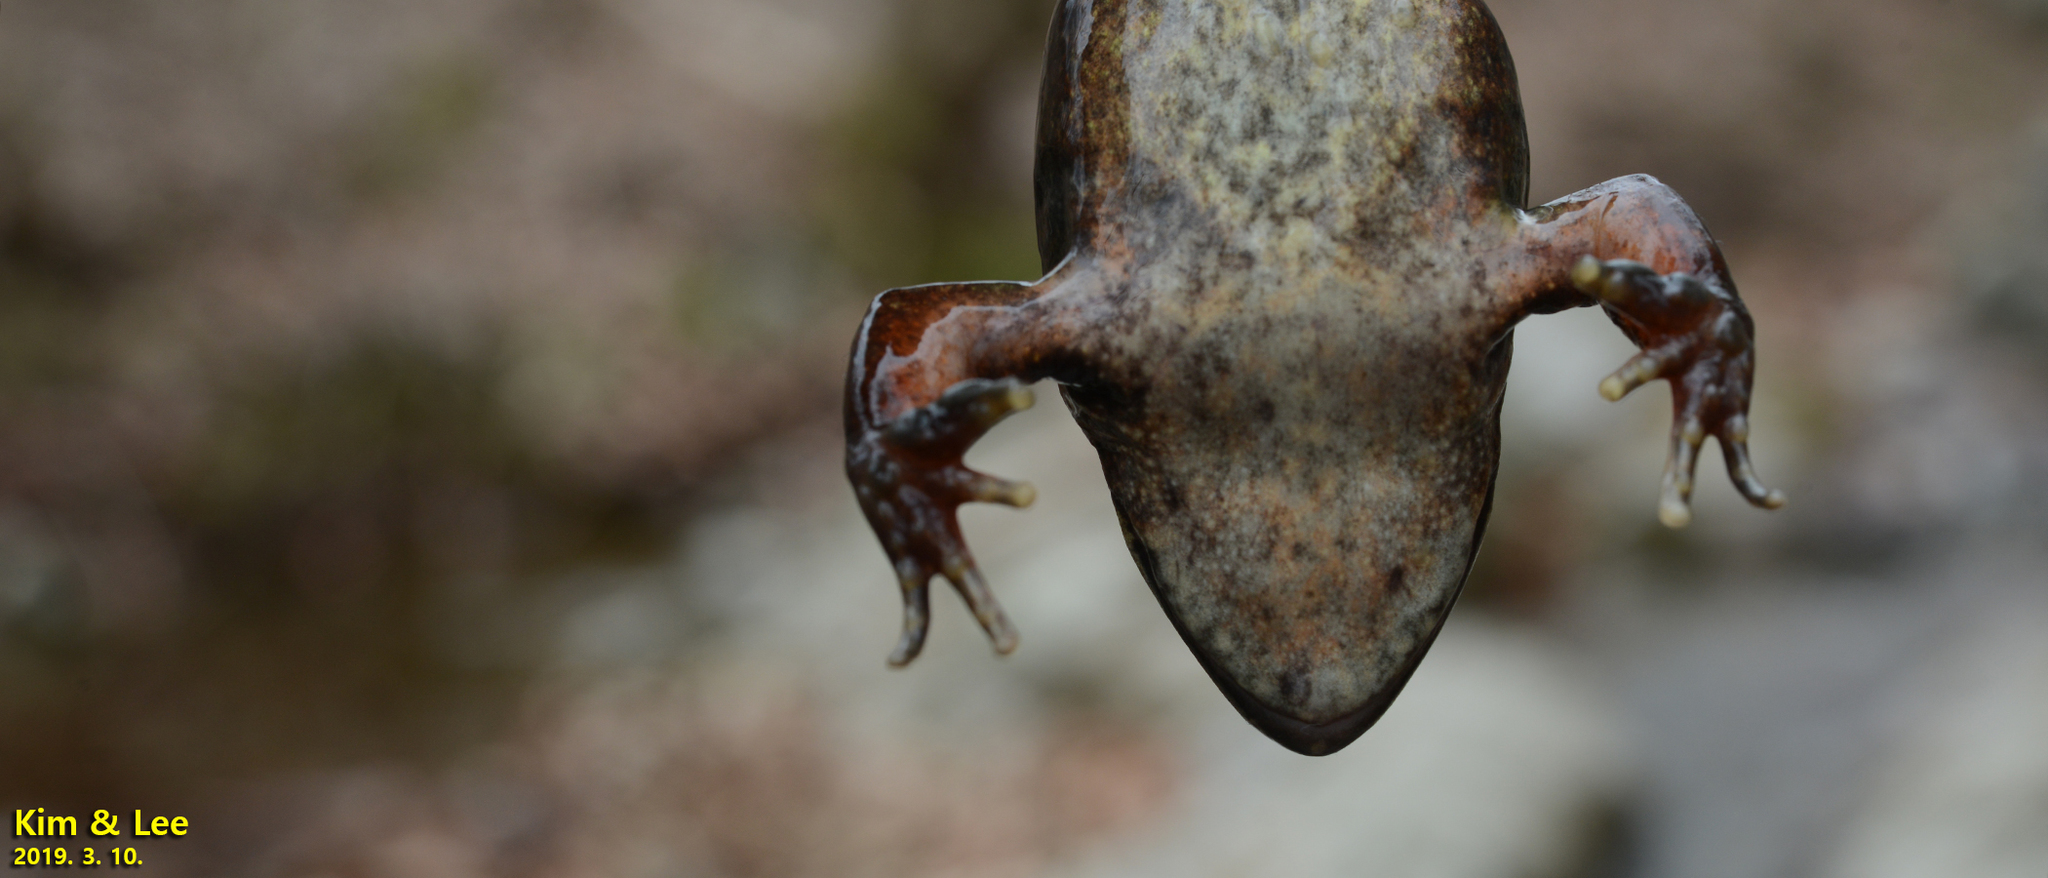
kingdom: Animalia
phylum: Chordata
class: Amphibia
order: Anura
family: Ranidae
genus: Rana
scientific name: Rana dybowskii
